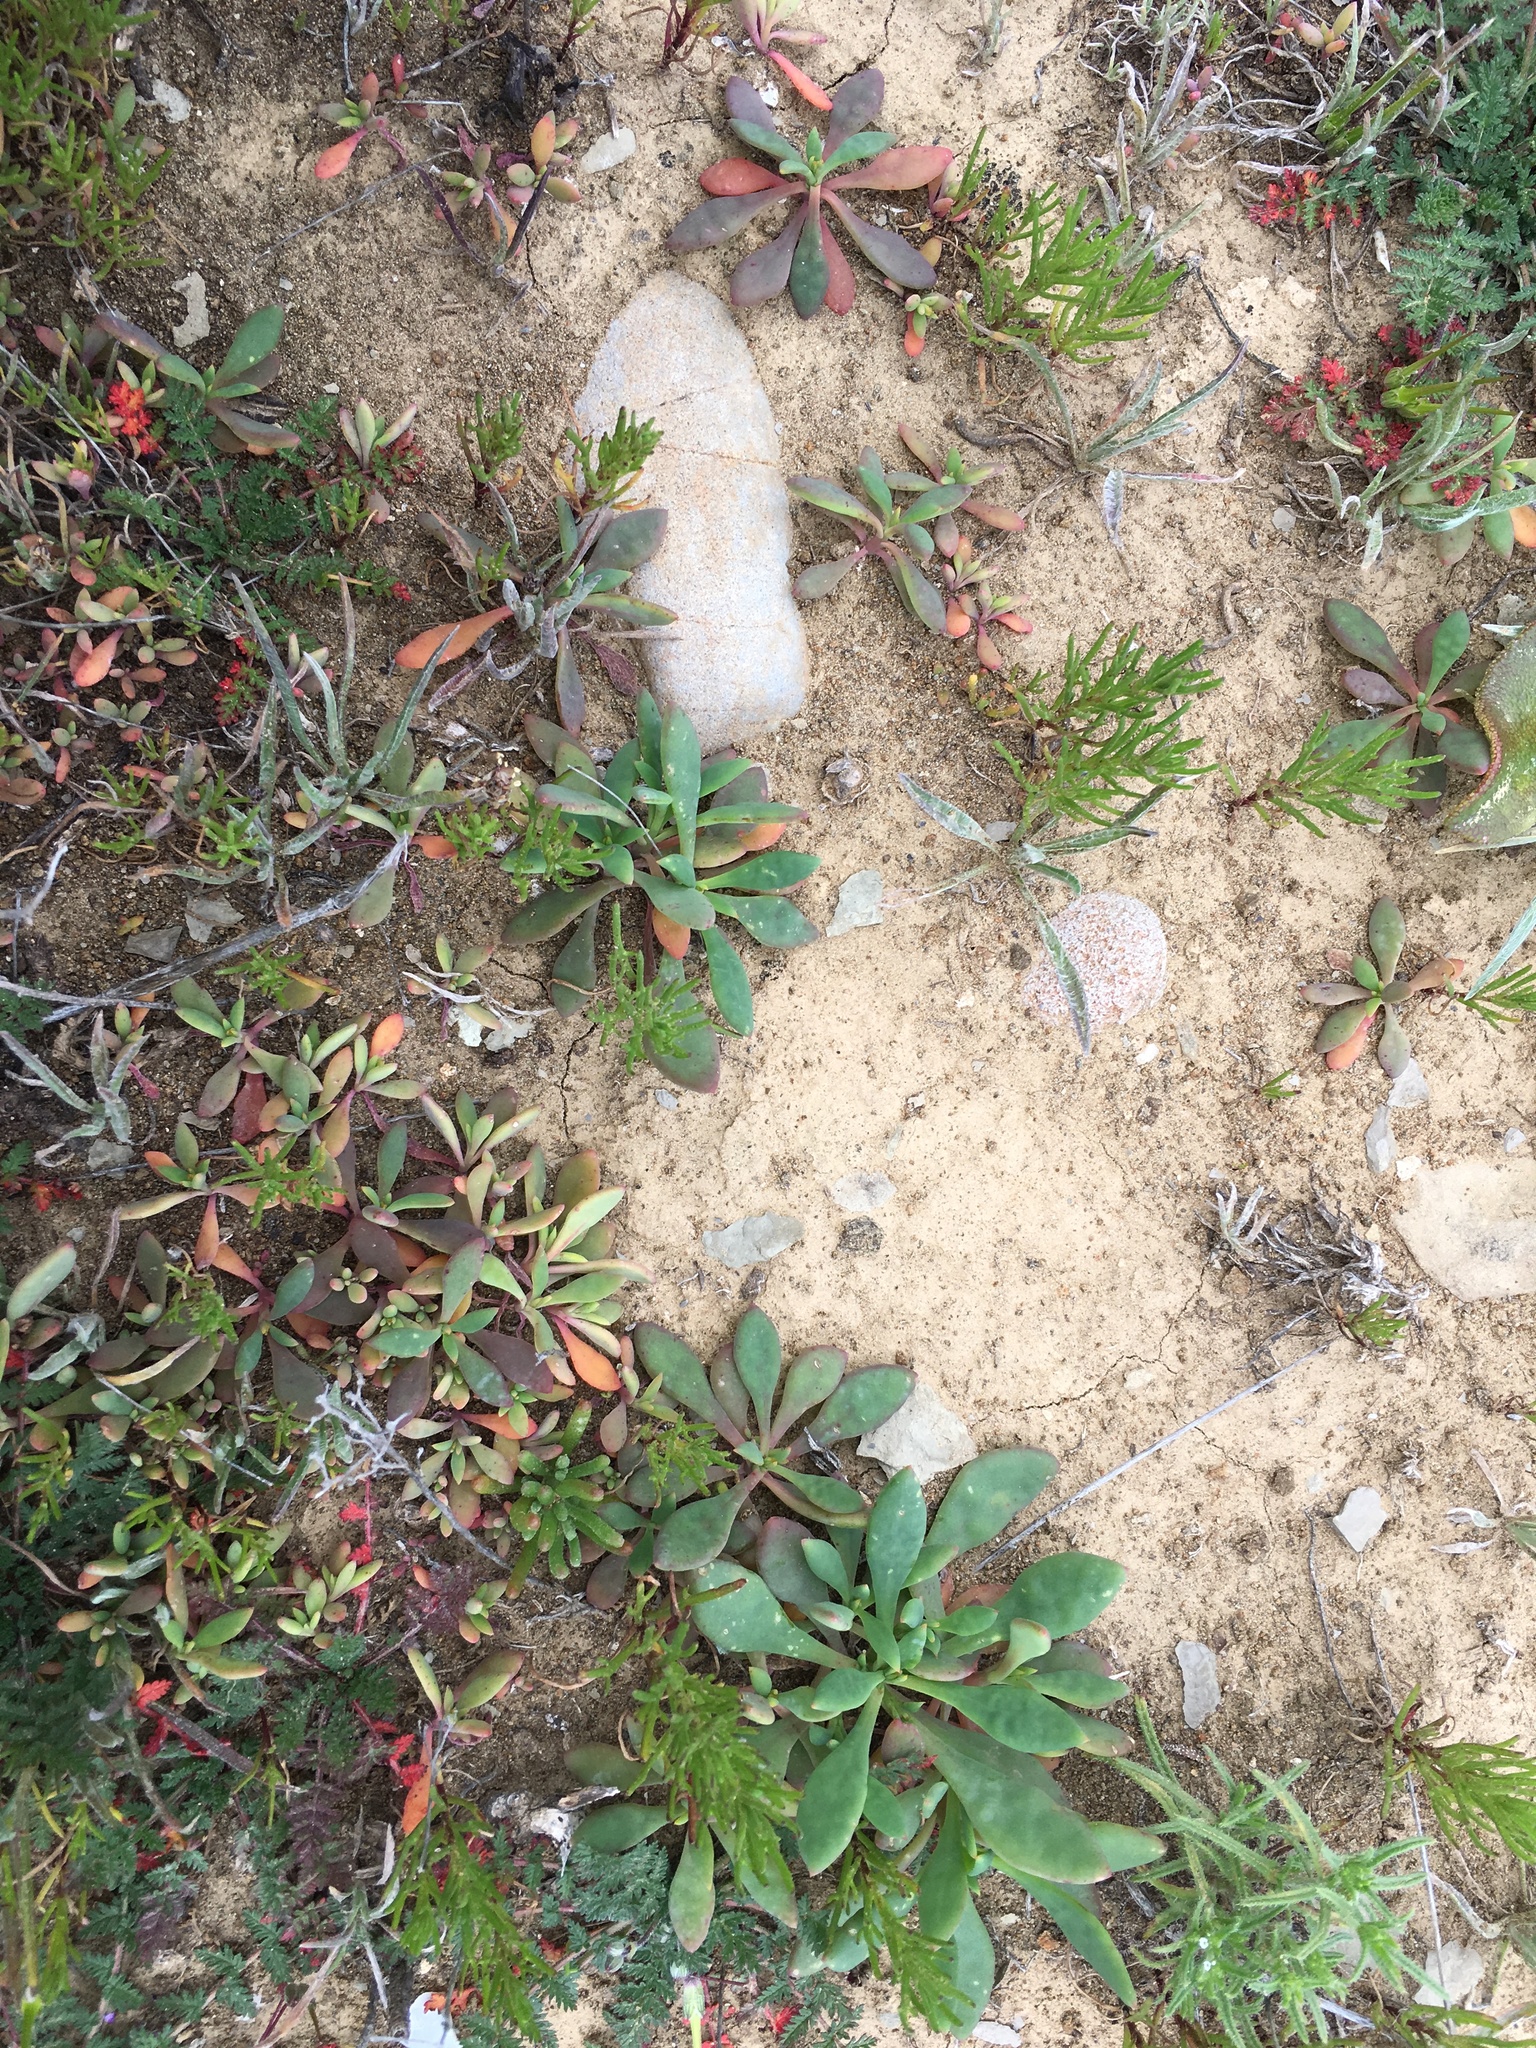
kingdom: Plantae
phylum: Tracheophyta
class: Magnoliopsida
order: Caryophyllales
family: Montiaceae
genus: Cistanthe
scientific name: Cistanthe maritima
